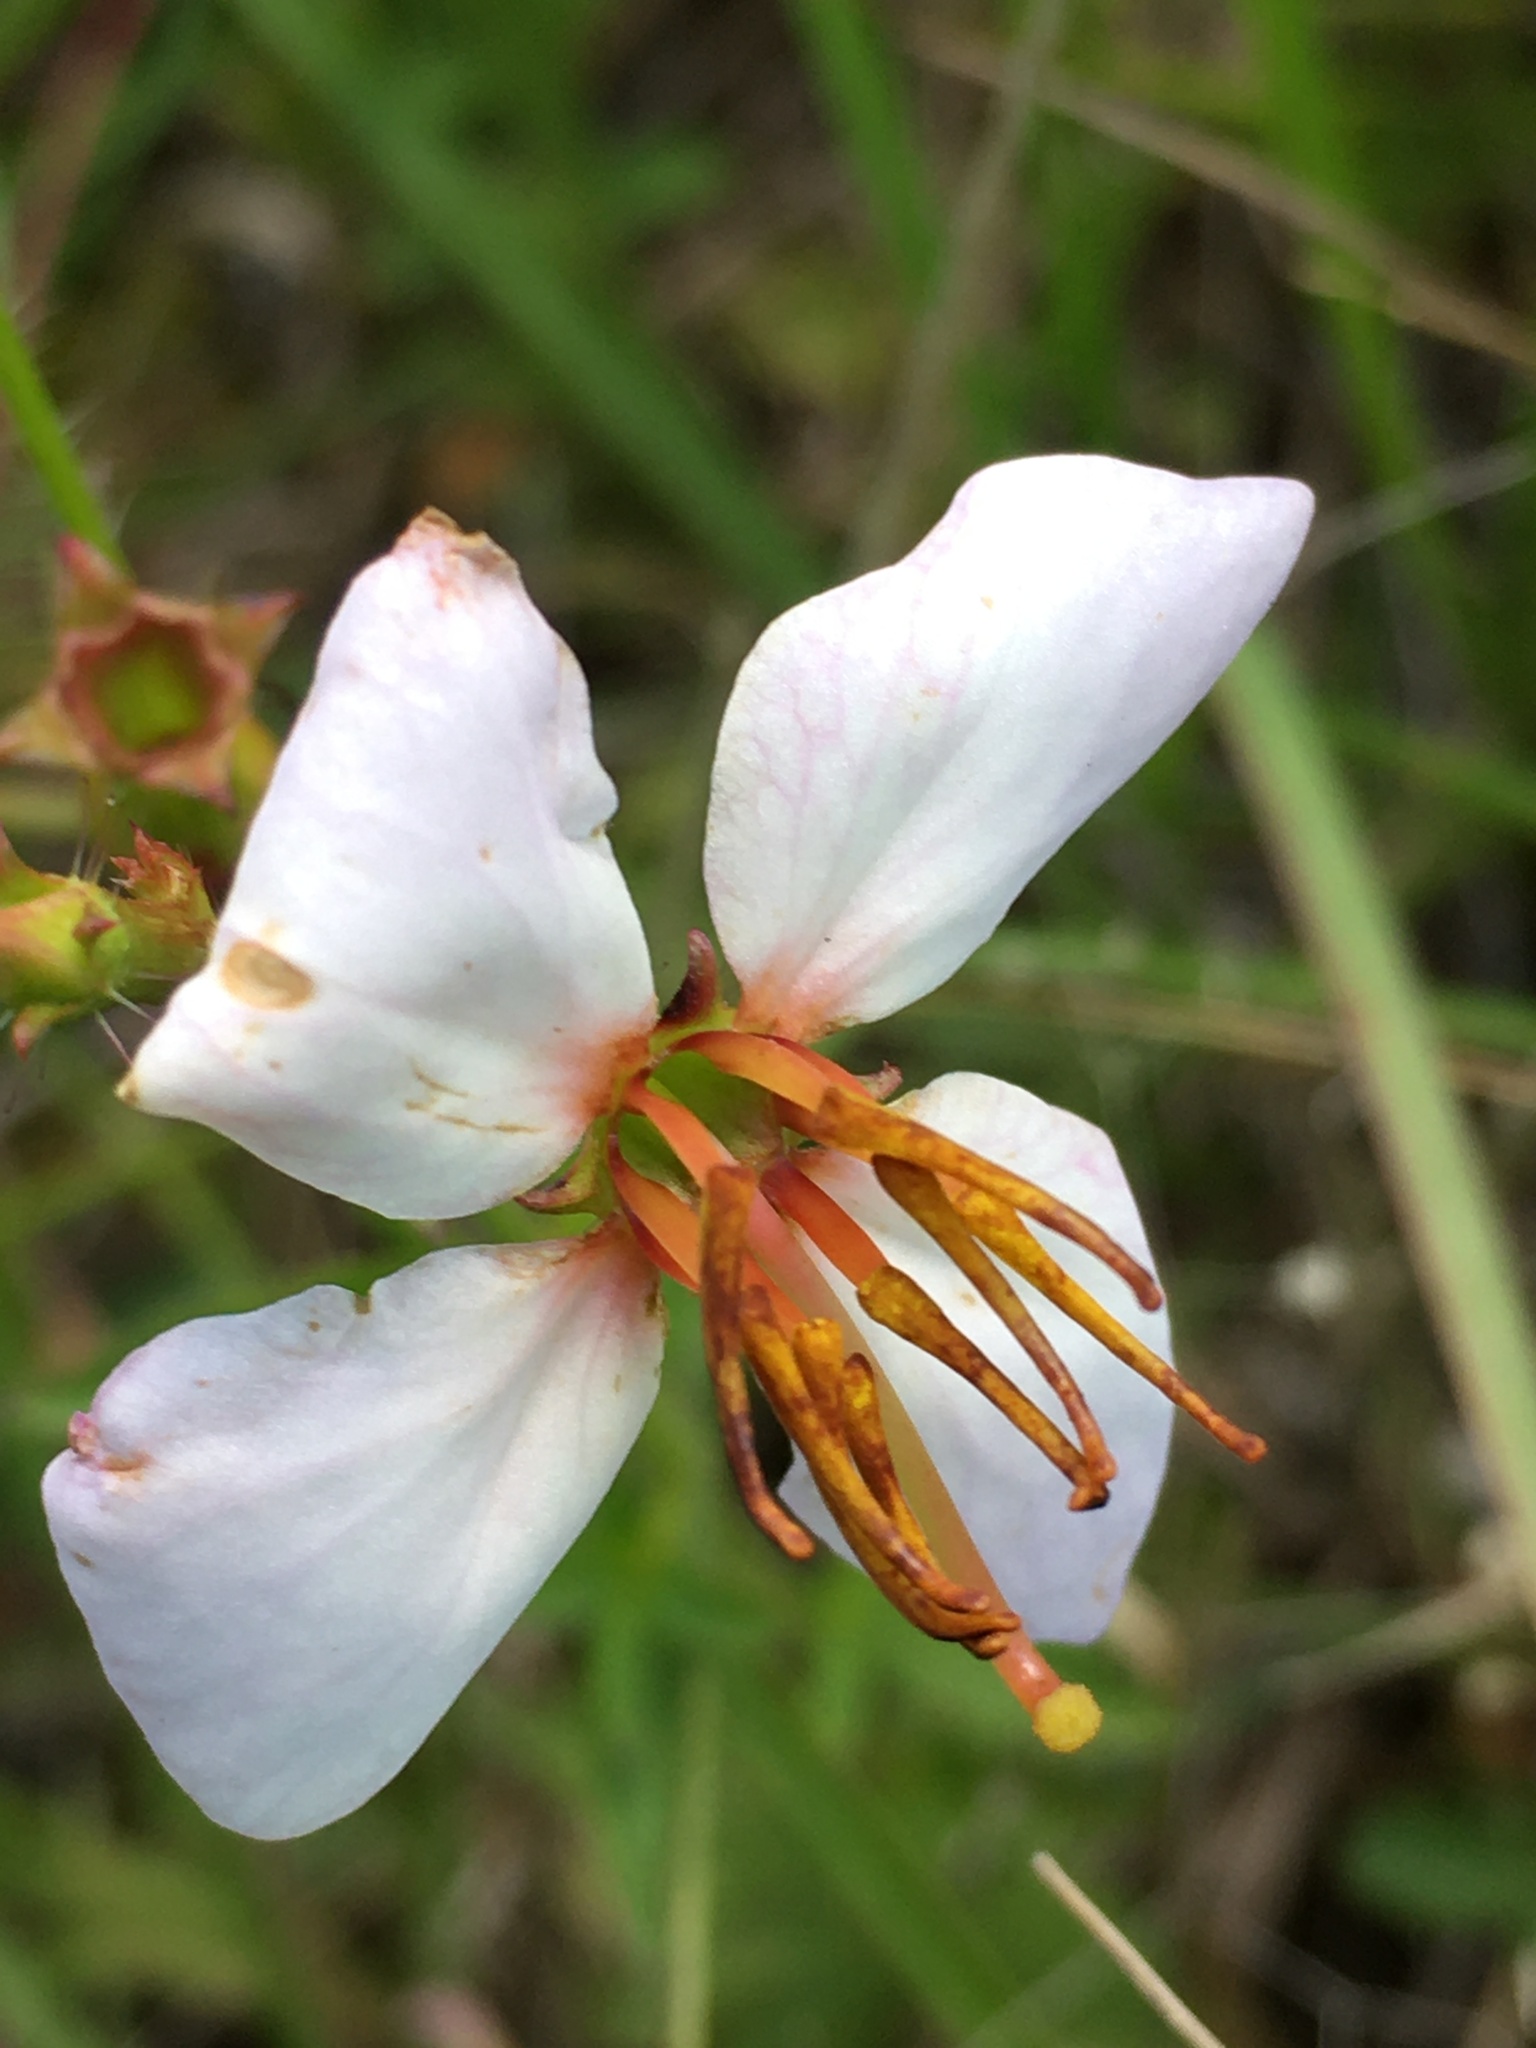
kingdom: Plantae
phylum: Tracheophyta
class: Magnoliopsida
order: Myrtales
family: Melastomataceae
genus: Rhexia
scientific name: Rhexia mariana
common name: Dull meadow-pitcher
